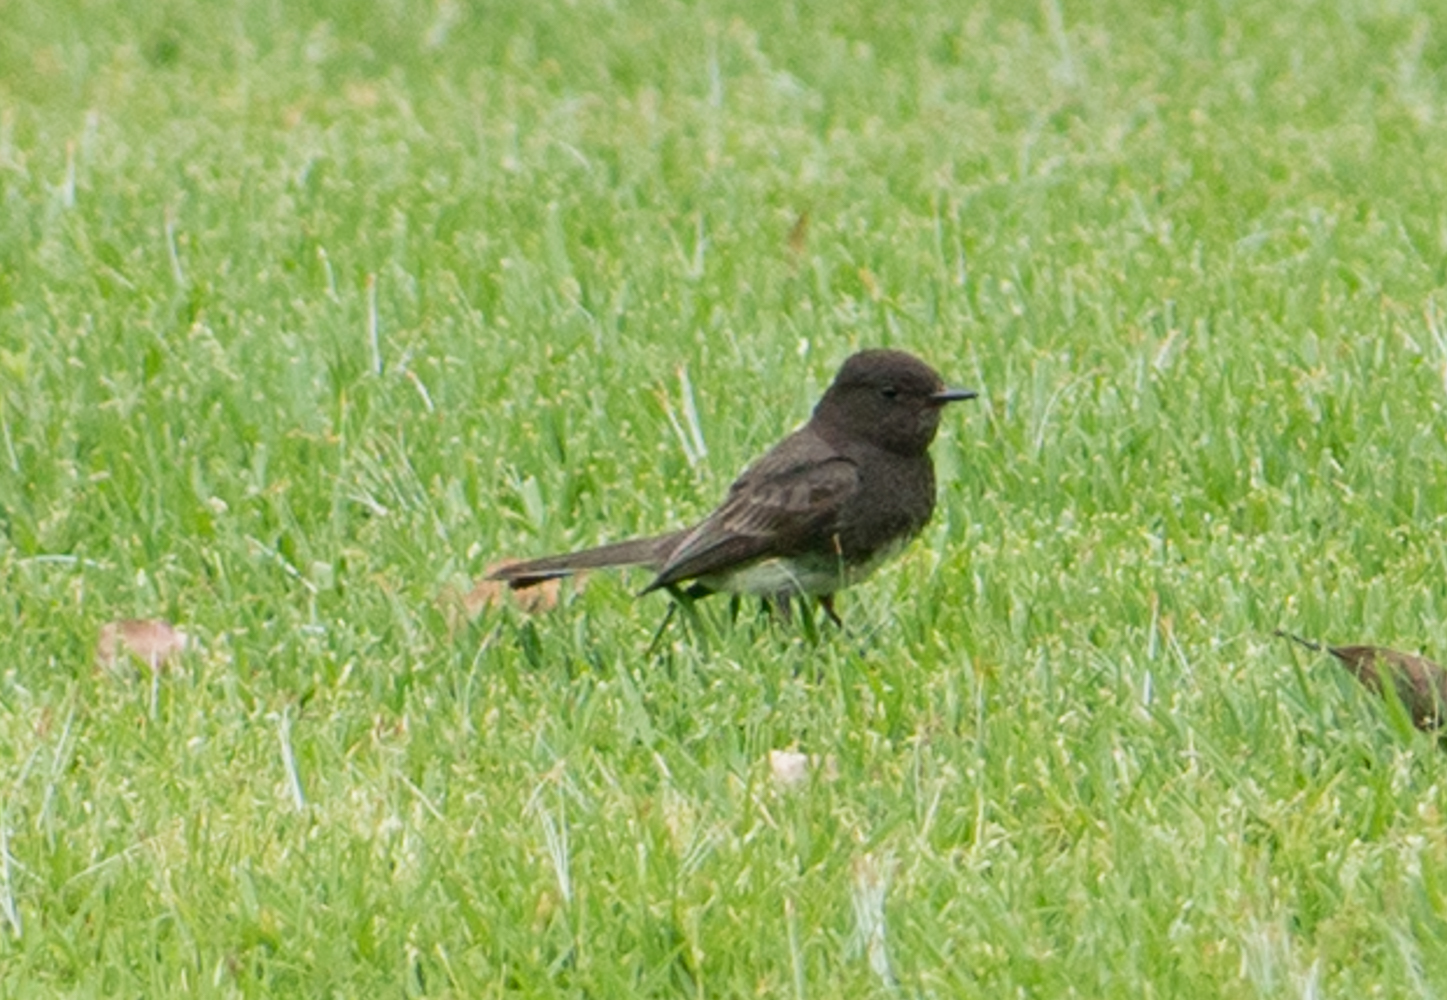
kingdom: Animalia
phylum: Chordata
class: Aves
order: Passeriformes
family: Tyrannidae
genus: Sayornis
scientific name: Sayornis nigricans
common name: Black phoebe
